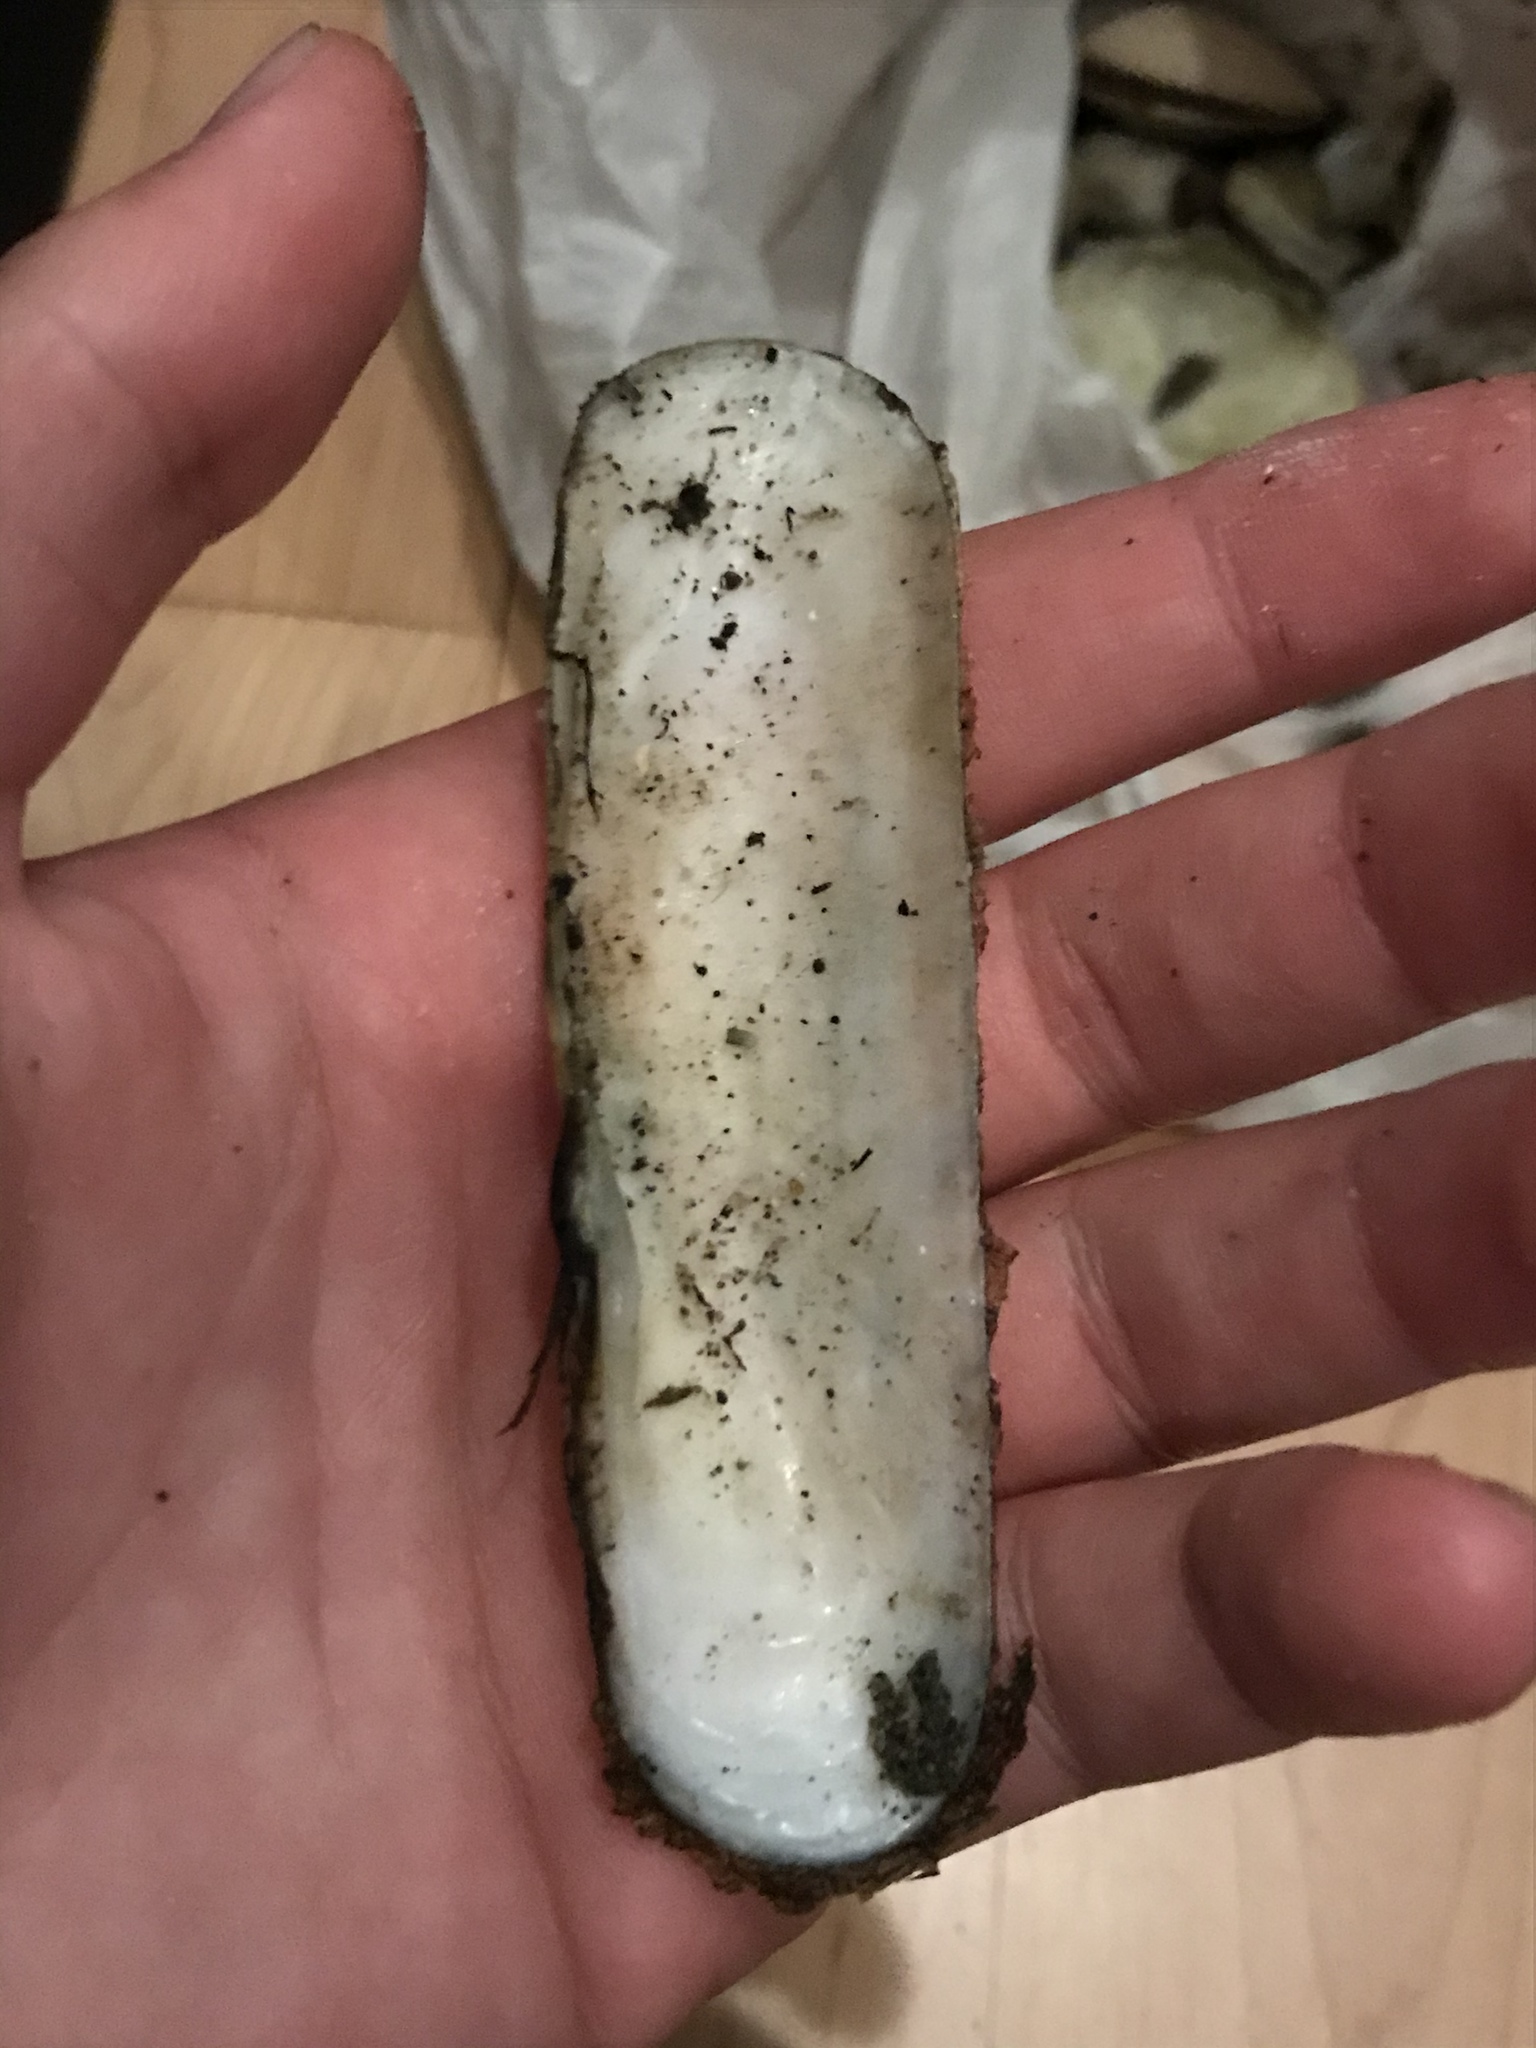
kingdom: Animalia
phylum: Mollusca
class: Bivalvia
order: Cardiida
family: Solecurtidae
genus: Tagelus
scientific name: Tagelus californianus
